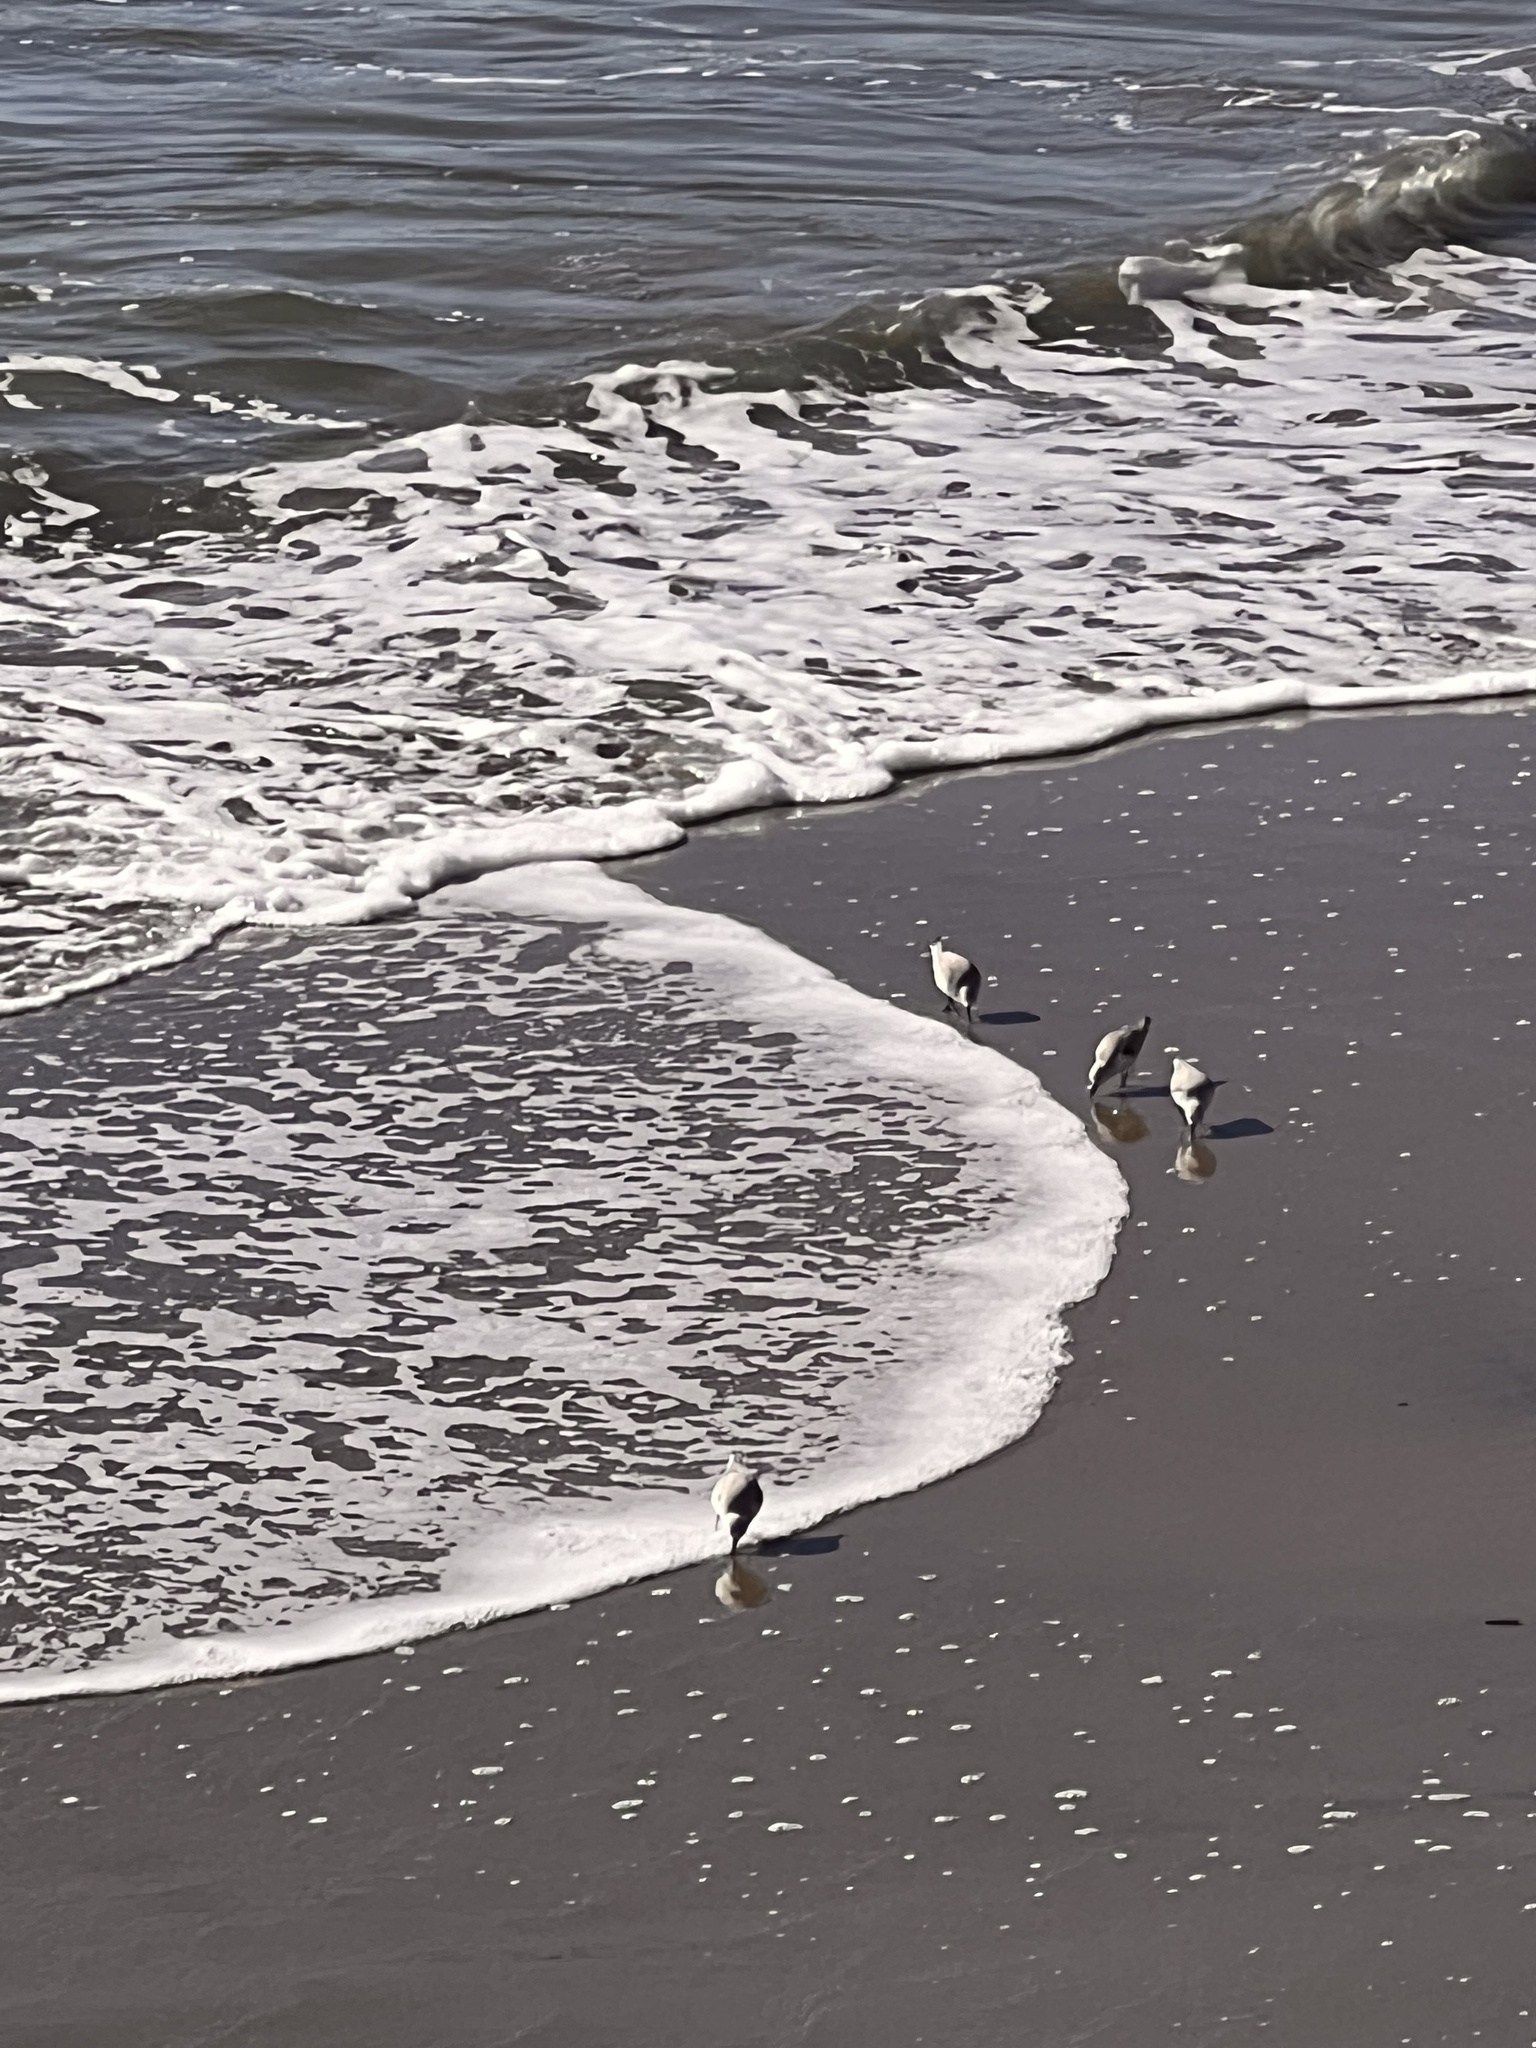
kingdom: Animalia
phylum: Chordata
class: Aves
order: Charadriiformes
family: Scolopacidae
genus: Calidris
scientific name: Calidris alba
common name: Sanderling
